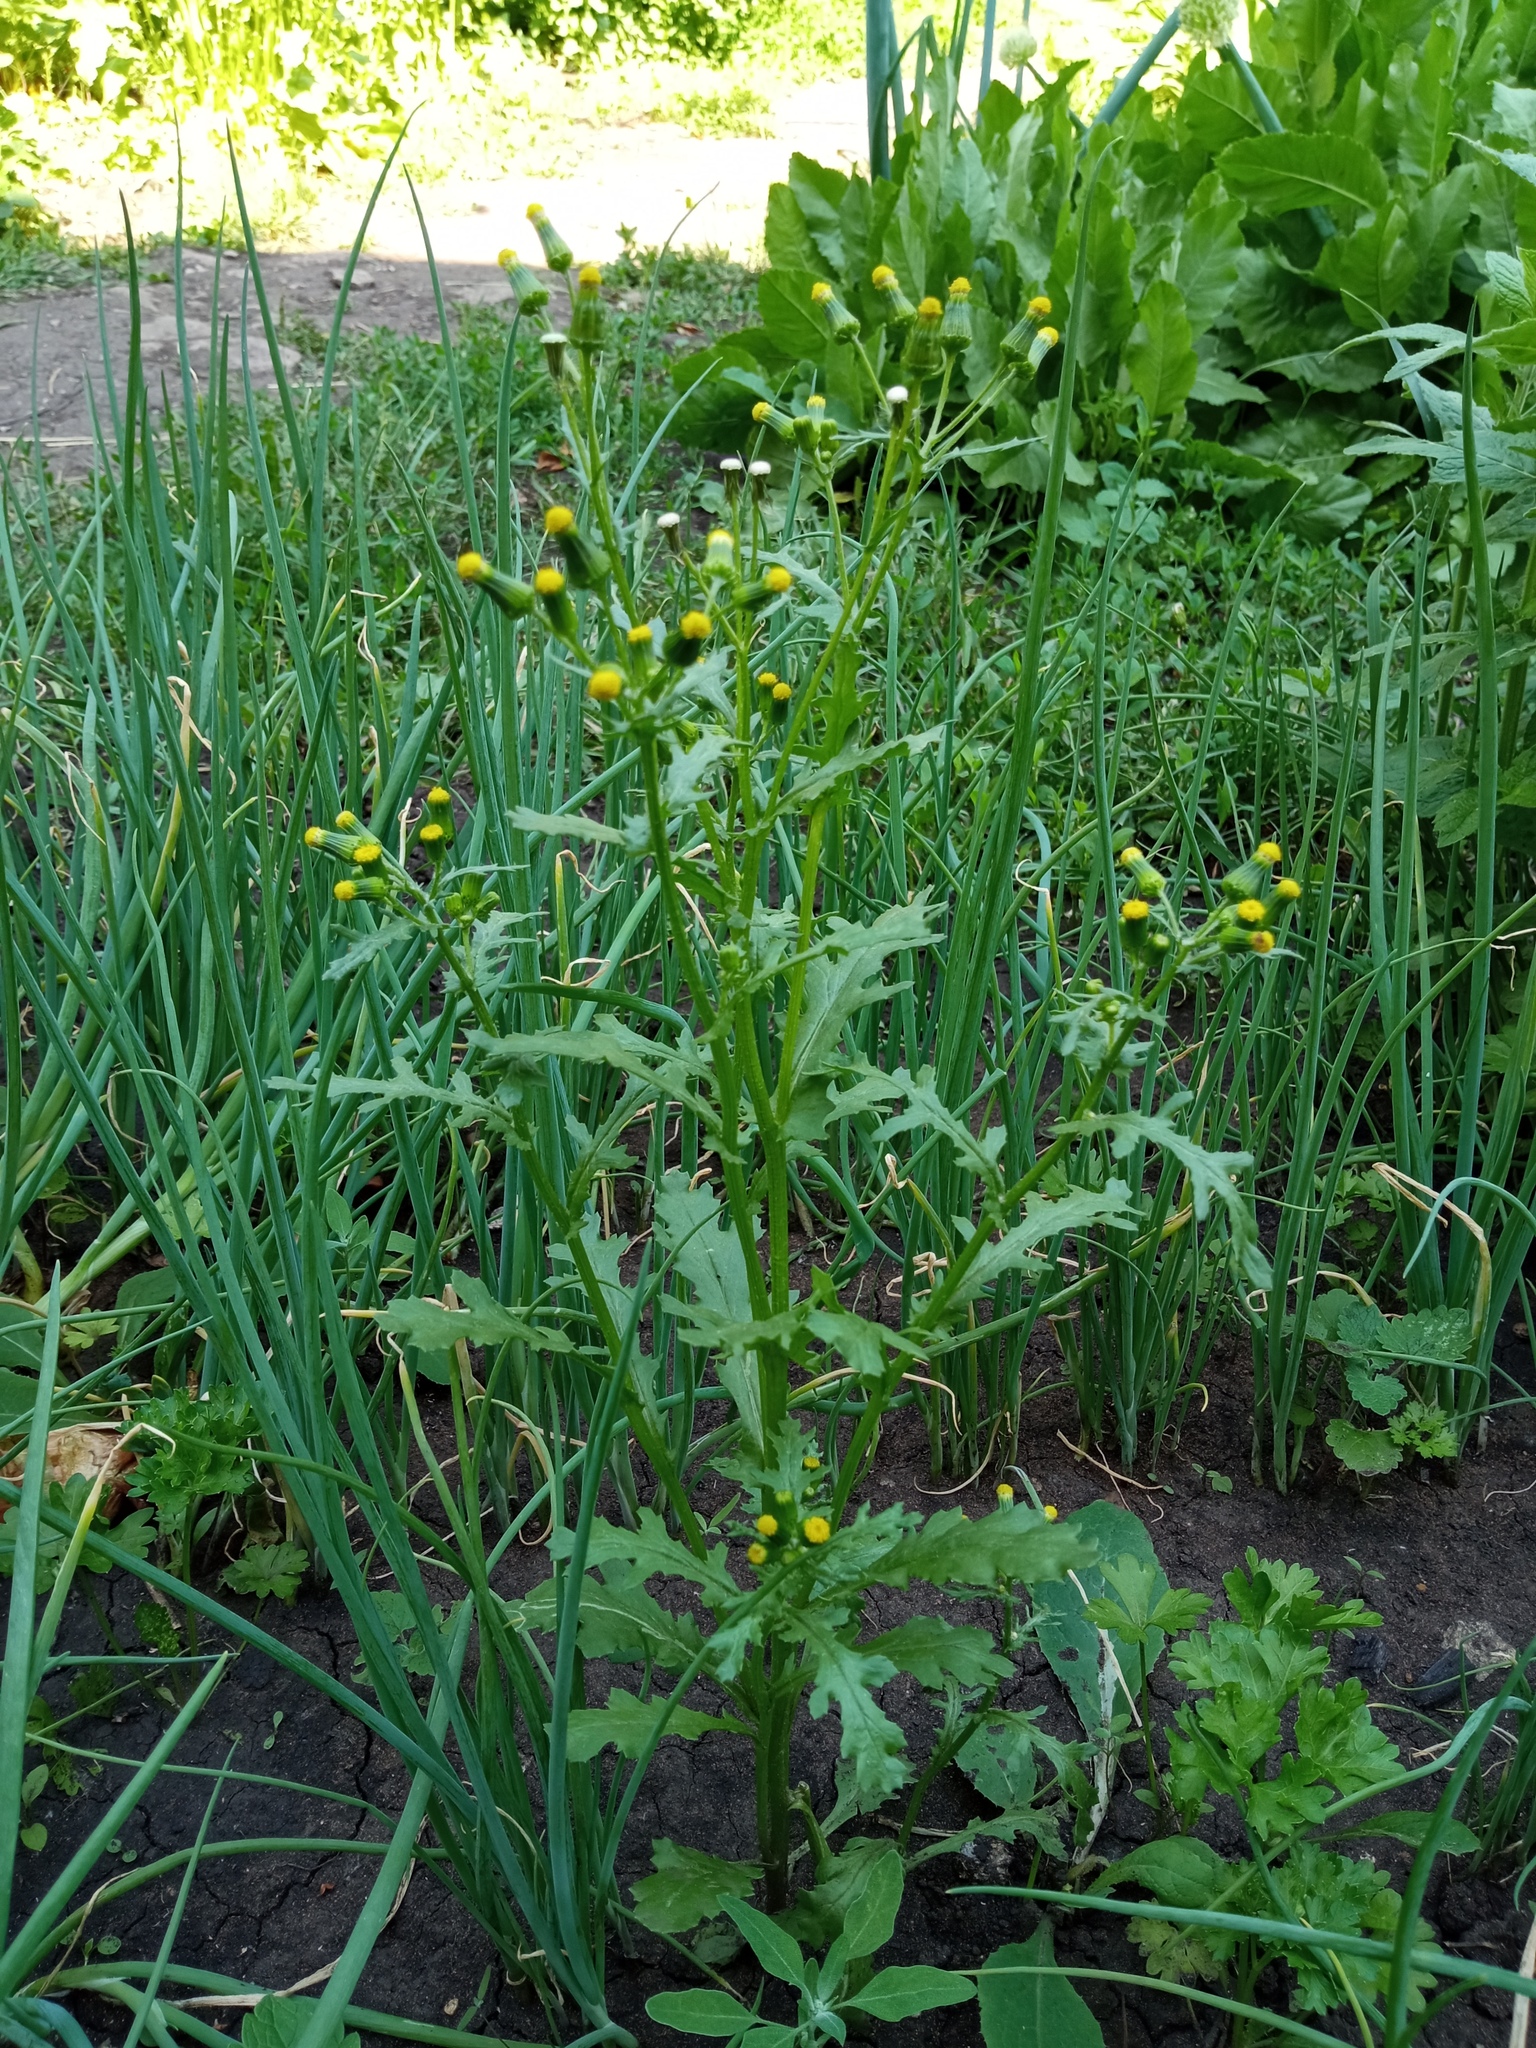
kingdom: Plantae
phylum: Tracheophyta
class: Magnoliopsida
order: Asterales
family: Asteraceae
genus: Senecio
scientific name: Senecio vulgaris
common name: Old-man-in-the-spring
